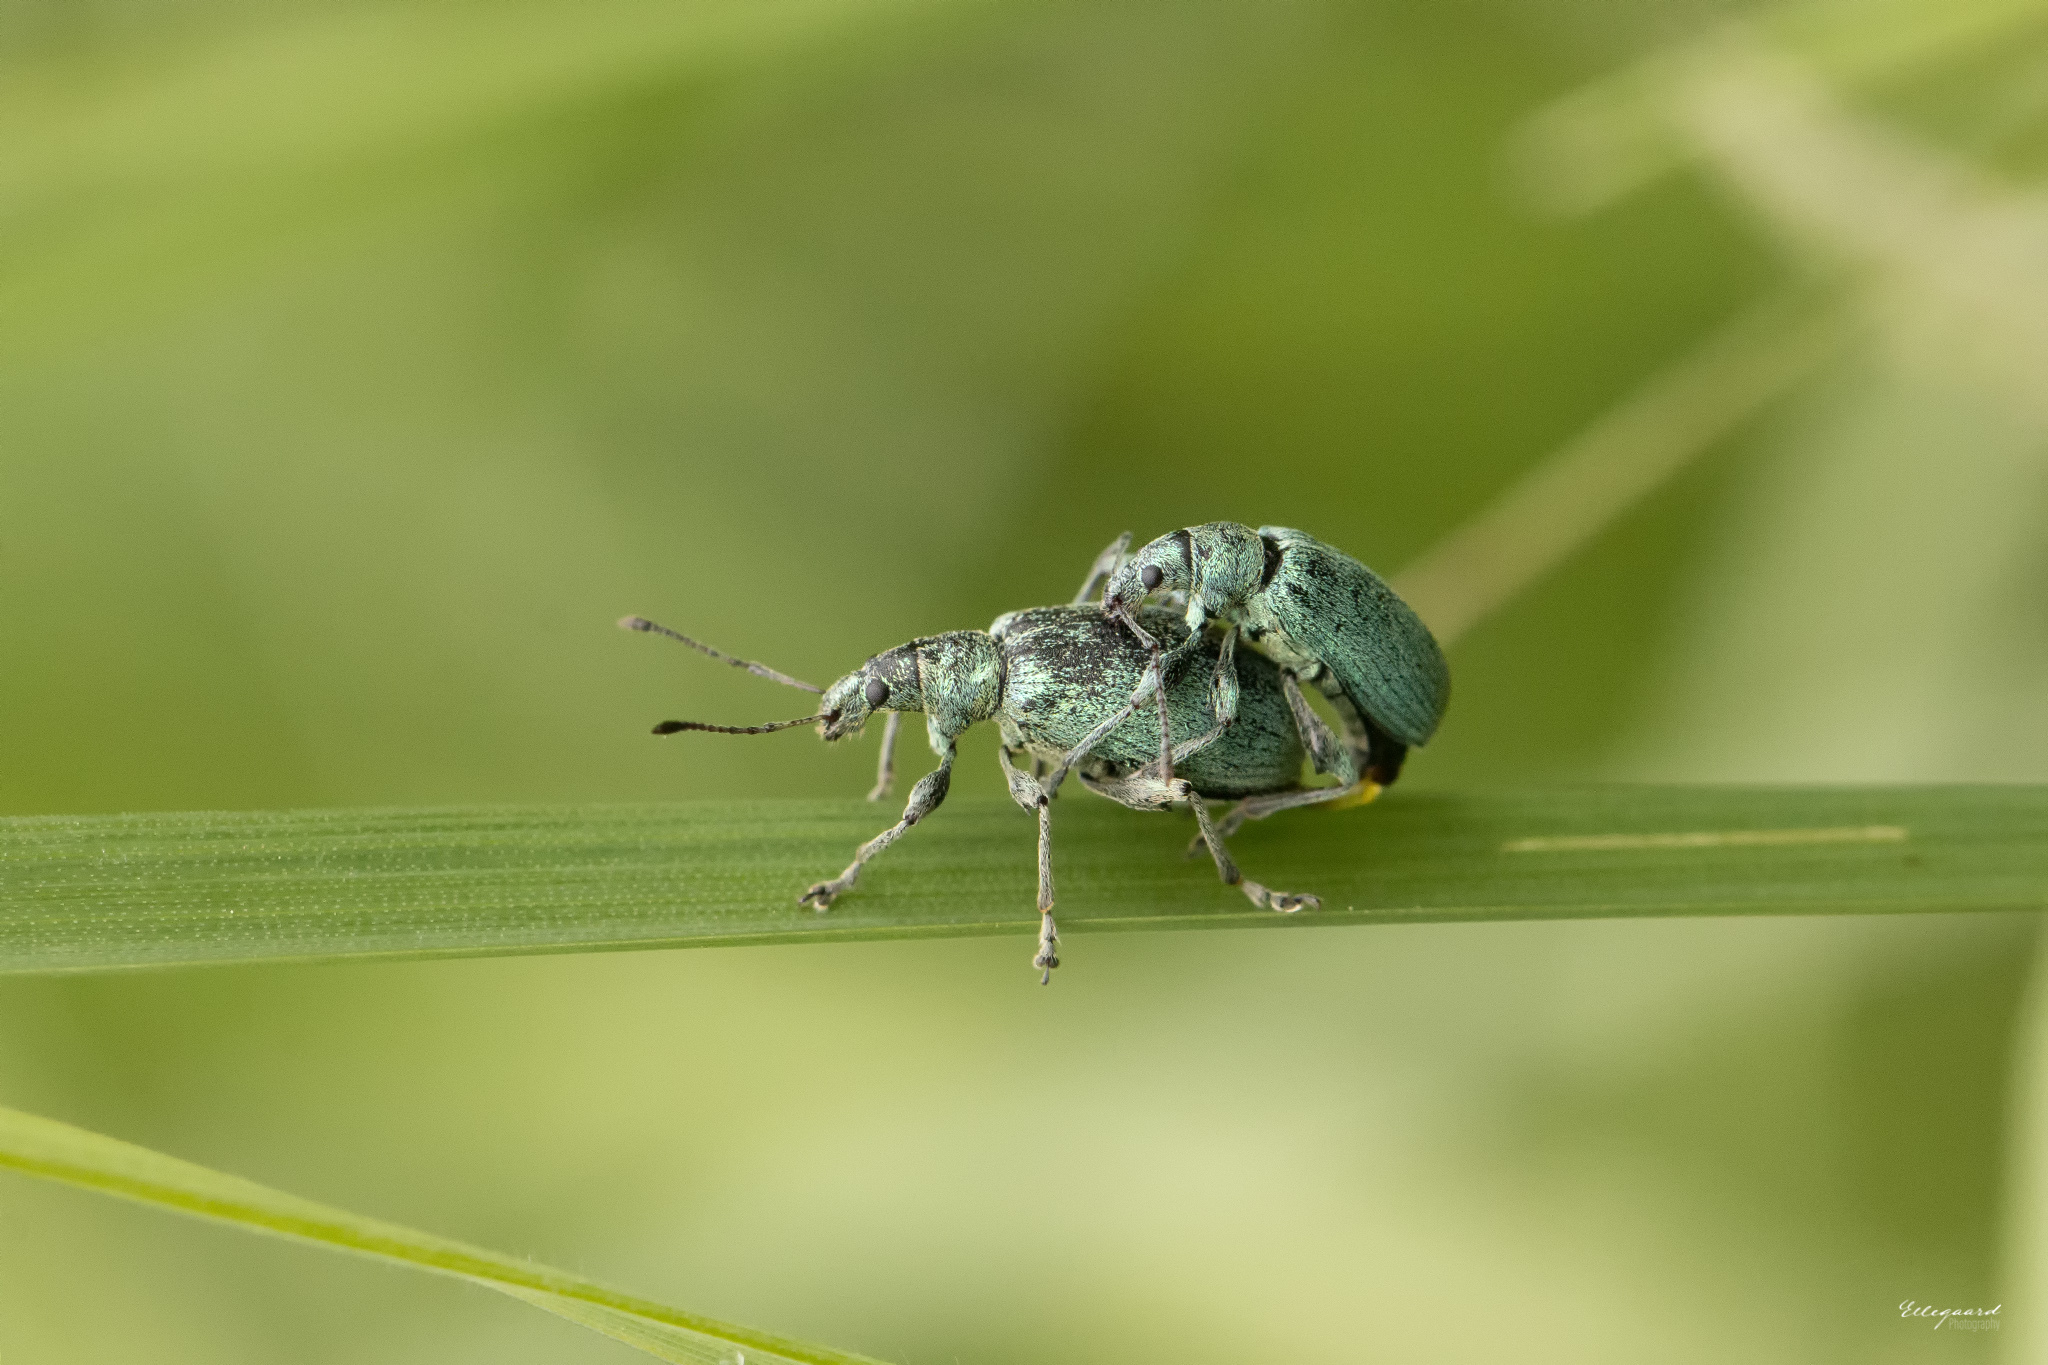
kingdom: Animalia
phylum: Arthropoda
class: Insecta
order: Coleoptera
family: Curculionidae
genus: Phyllobius
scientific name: Phyllobius pomaceus
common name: Green nettle weevil
